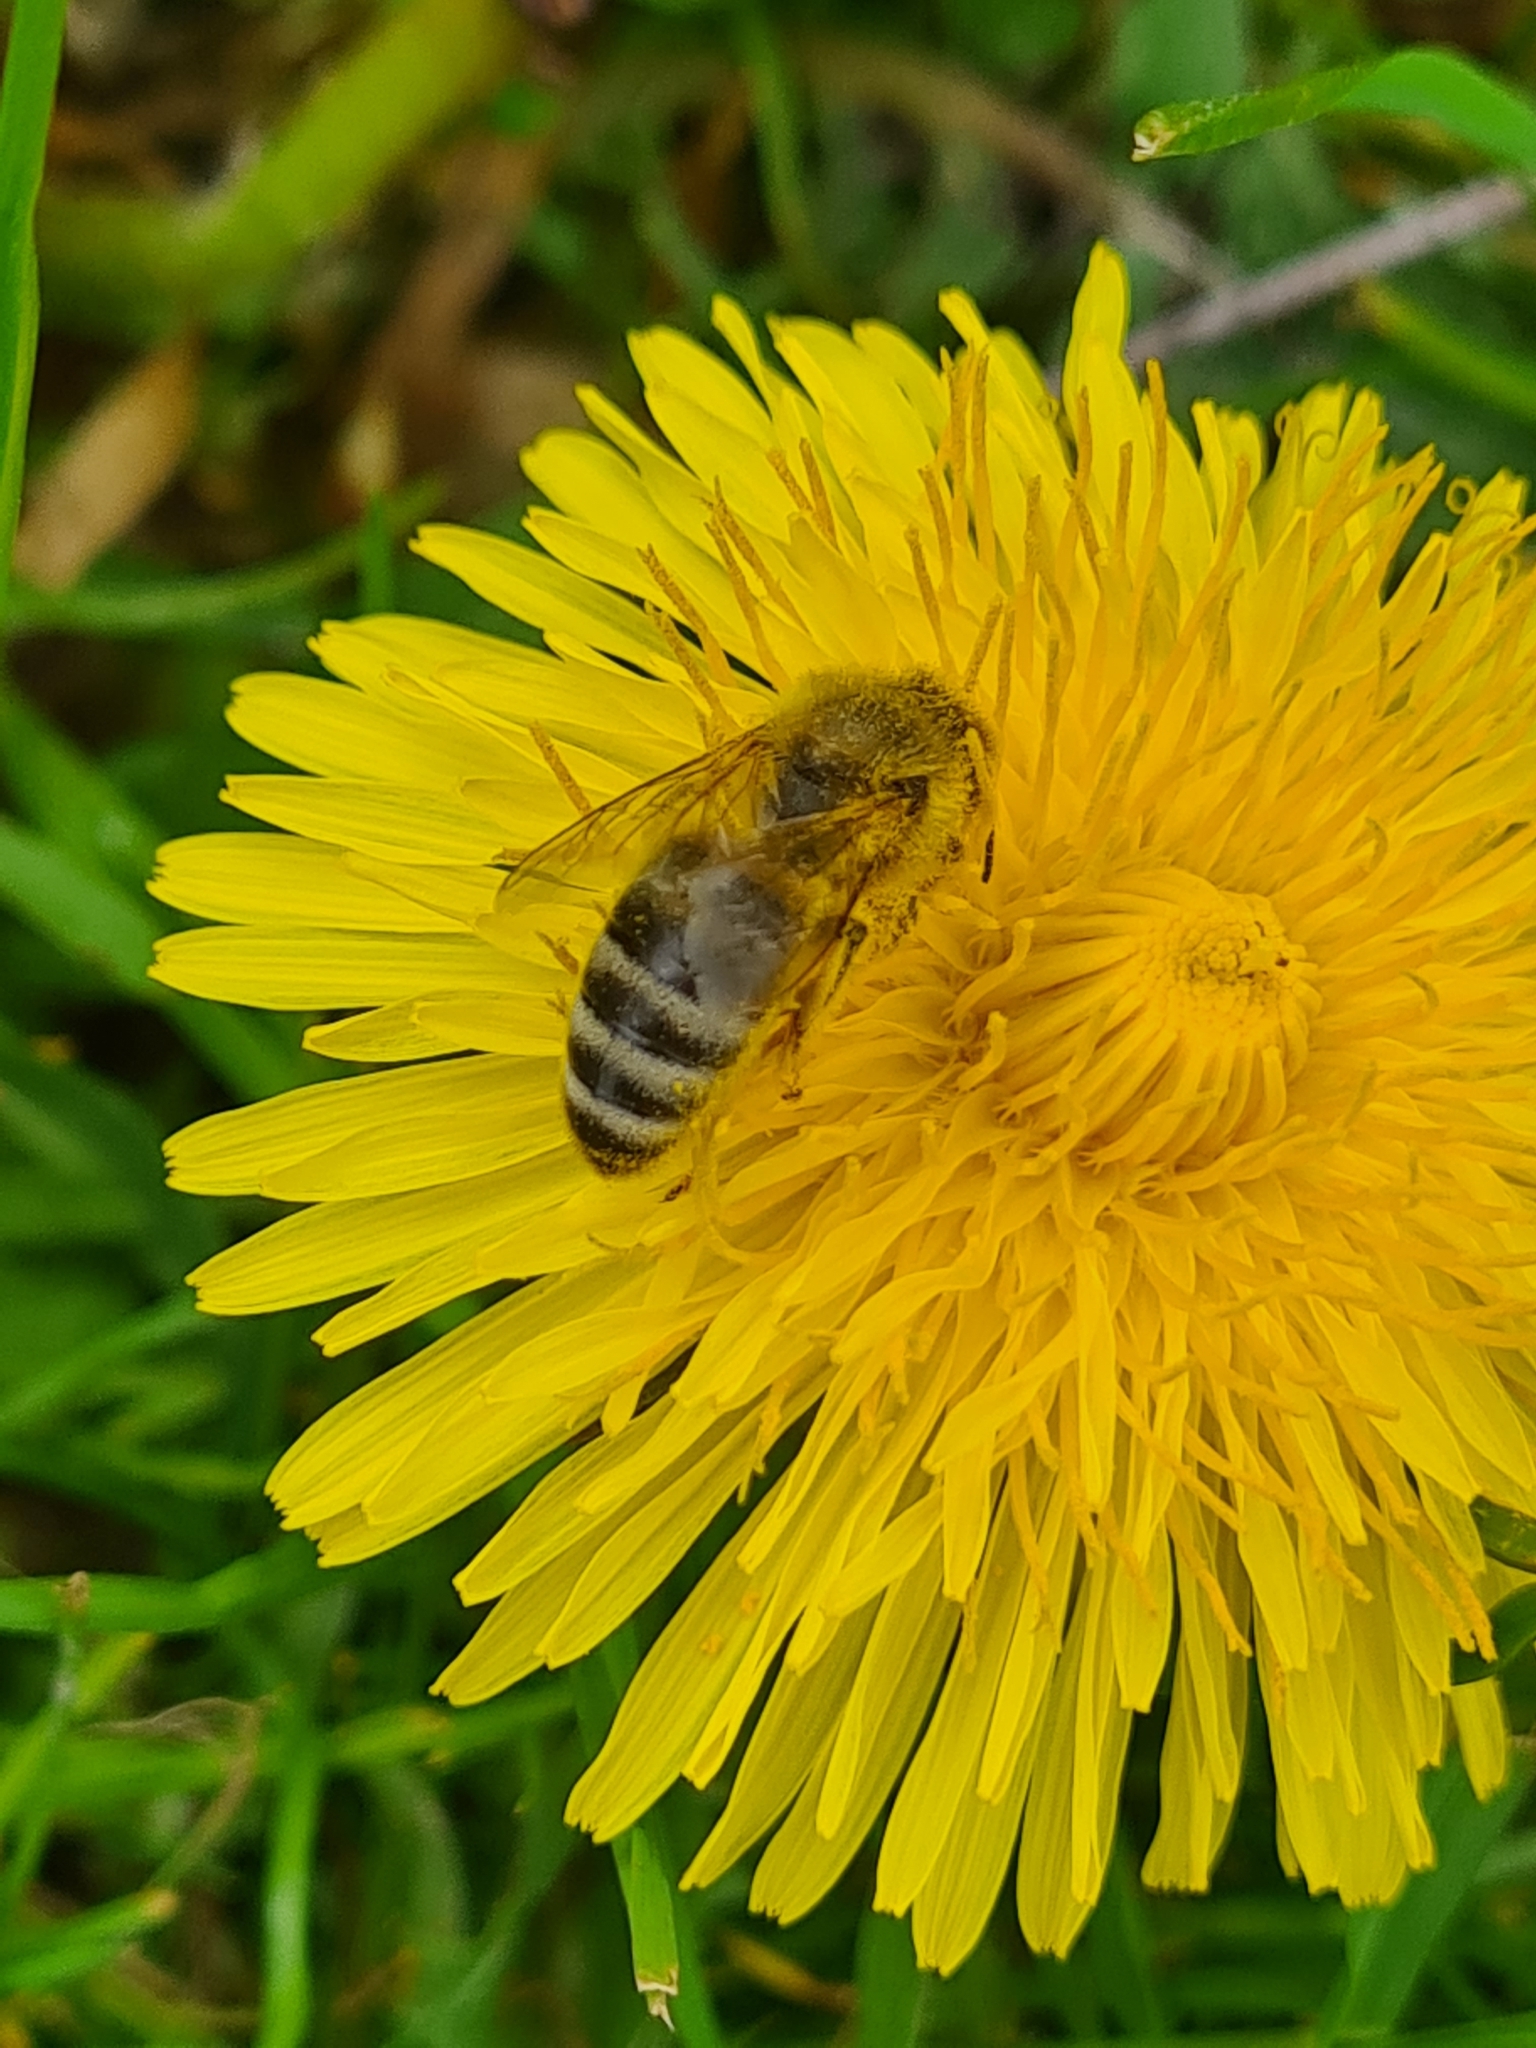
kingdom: Animalia
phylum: Arthropoda
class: Insecta
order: Hymenoptera
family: Apidae
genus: Apis
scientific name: Apis mellifera
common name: Honey bee
